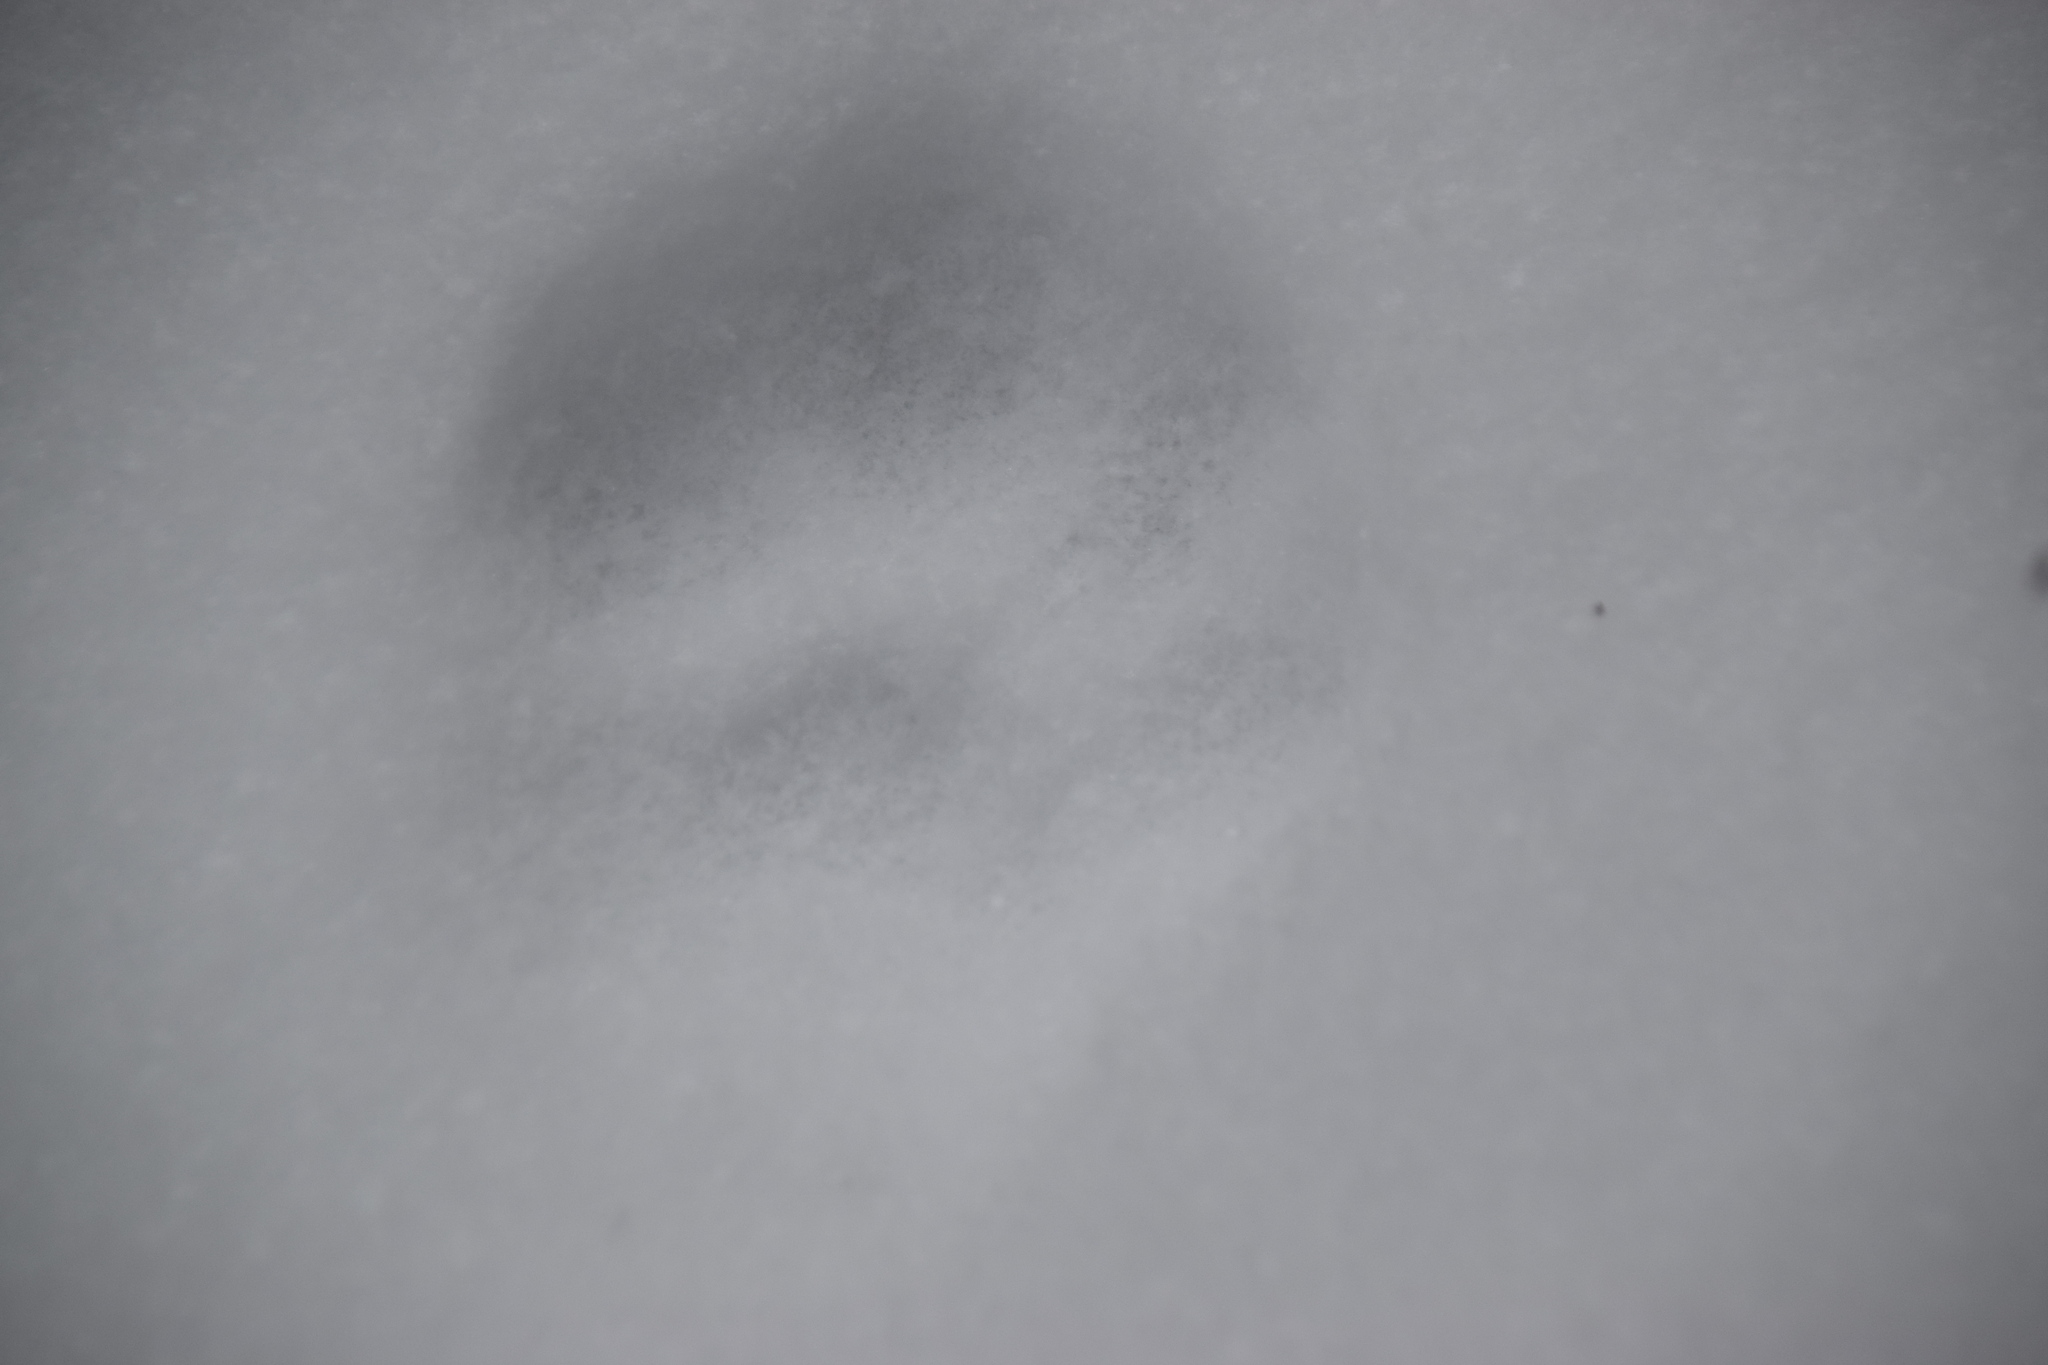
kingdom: Animalia
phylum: Chordata
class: Mammalia
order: Carnivora
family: Felidae
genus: Lynx
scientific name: Lynx canadensis
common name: Canadian lynx
